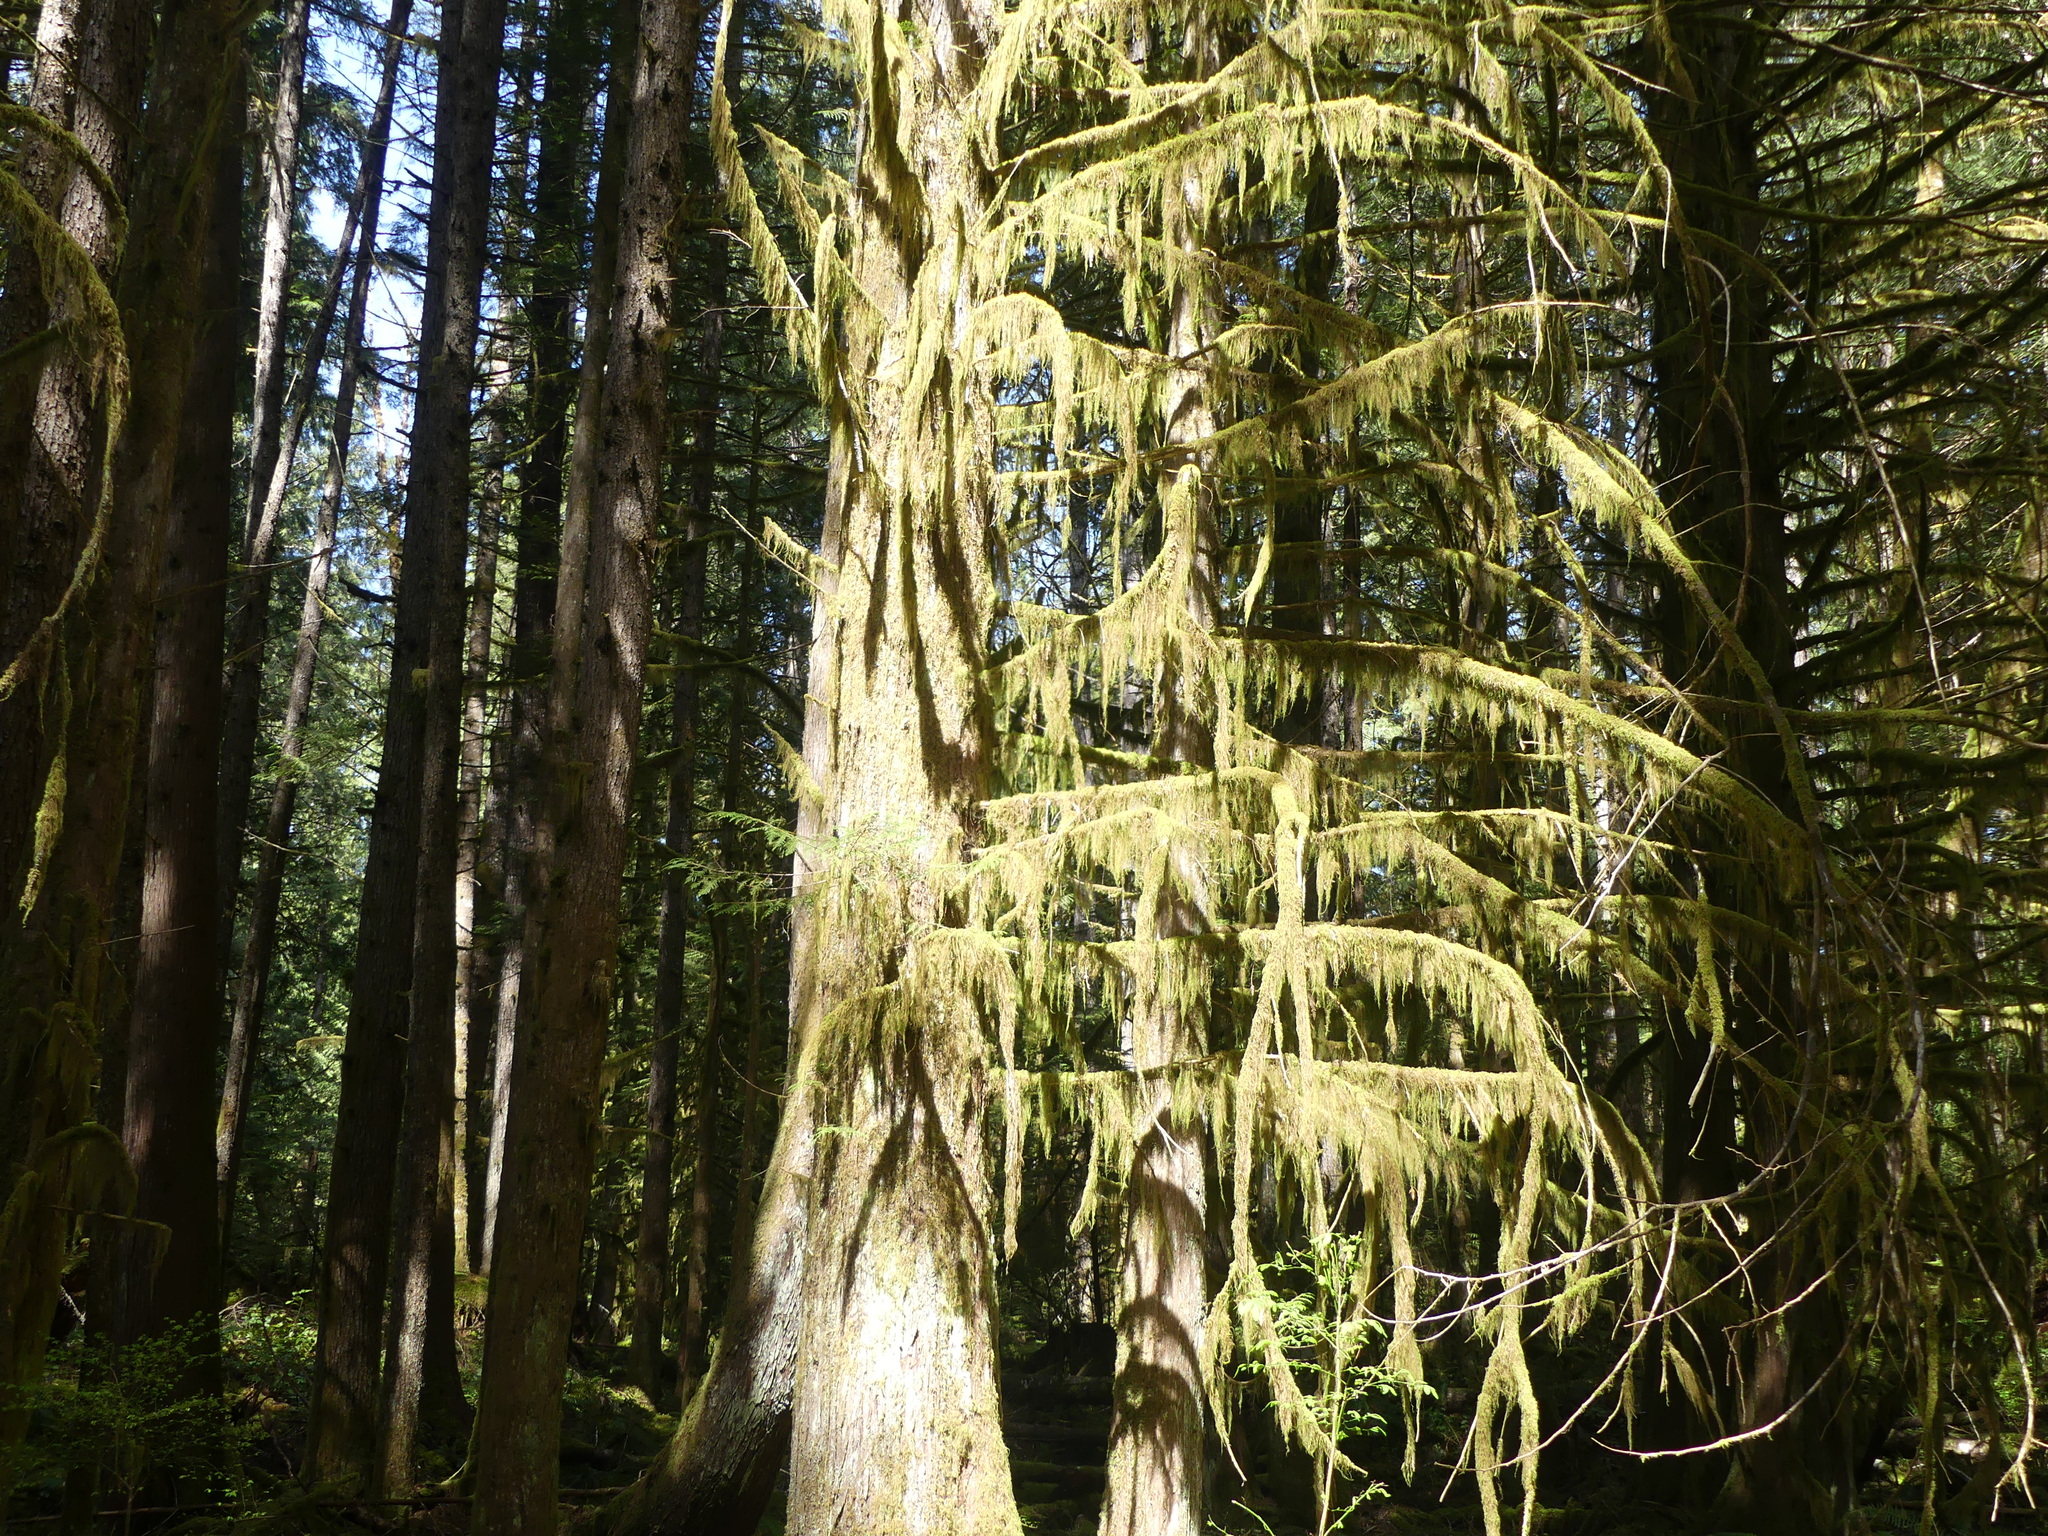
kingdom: Plantae
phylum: Bryophyta
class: Bryopsida
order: Hypnales
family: Lembophyllaceae
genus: Pseudisothecium
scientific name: Pseudisothecium stoloniferum
